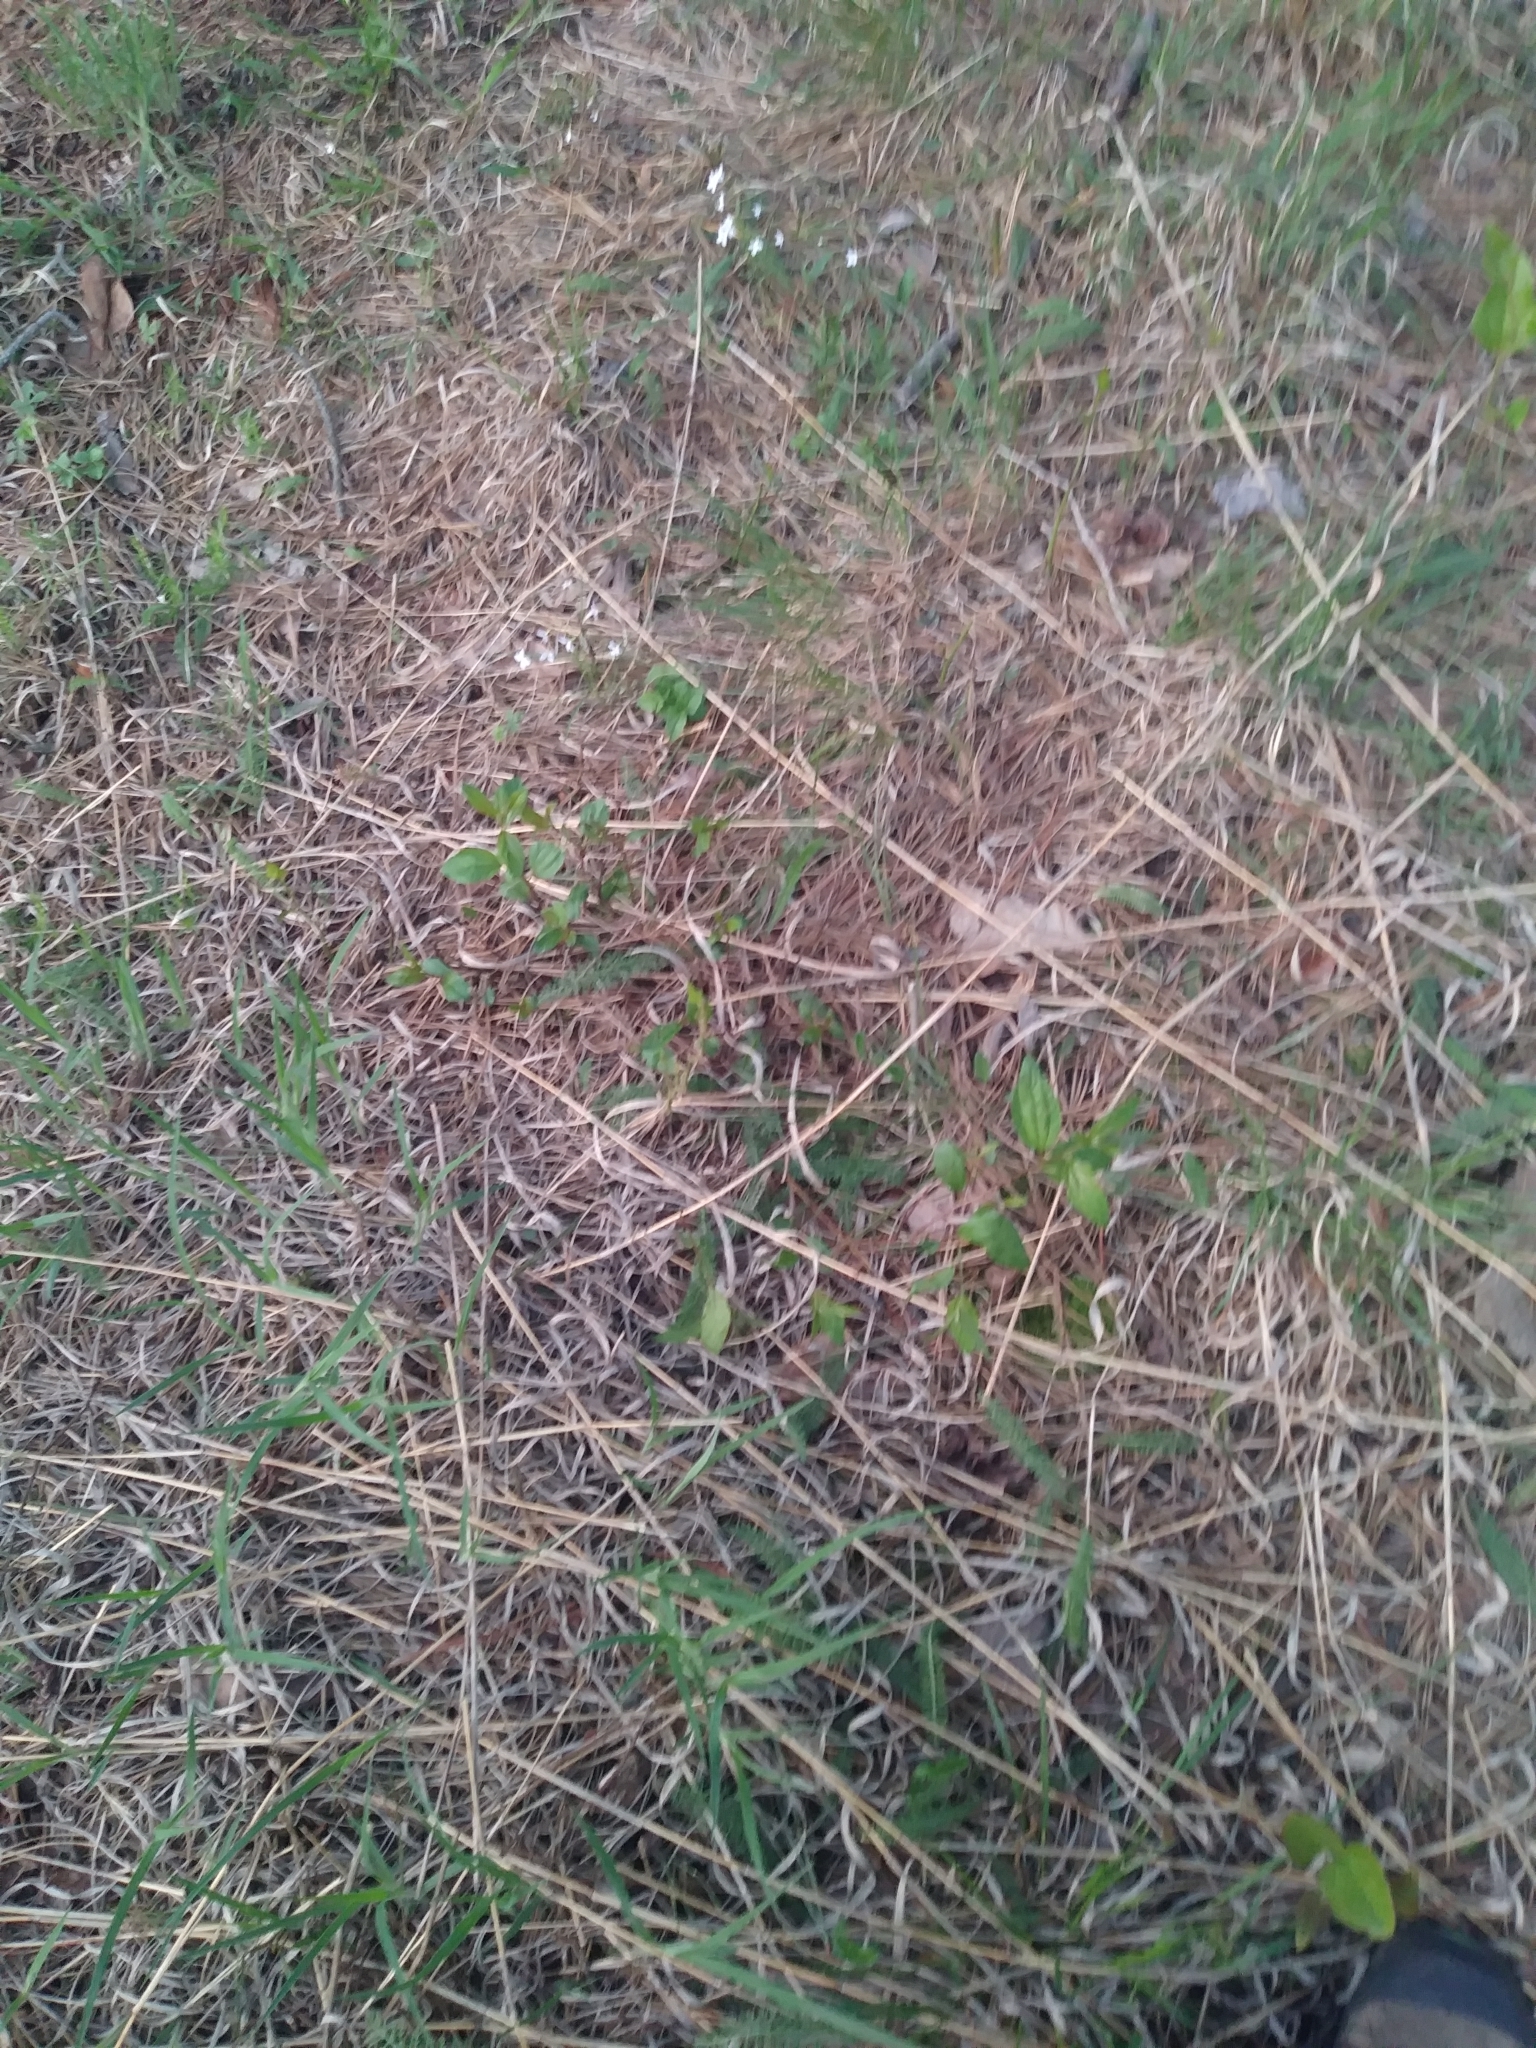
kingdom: Plantae
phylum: Tracheophyta
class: Magnoliopsida
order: Rosales
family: Rhamnaceae
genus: Ceanothus
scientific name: Ceanothus americanus
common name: Redroot
